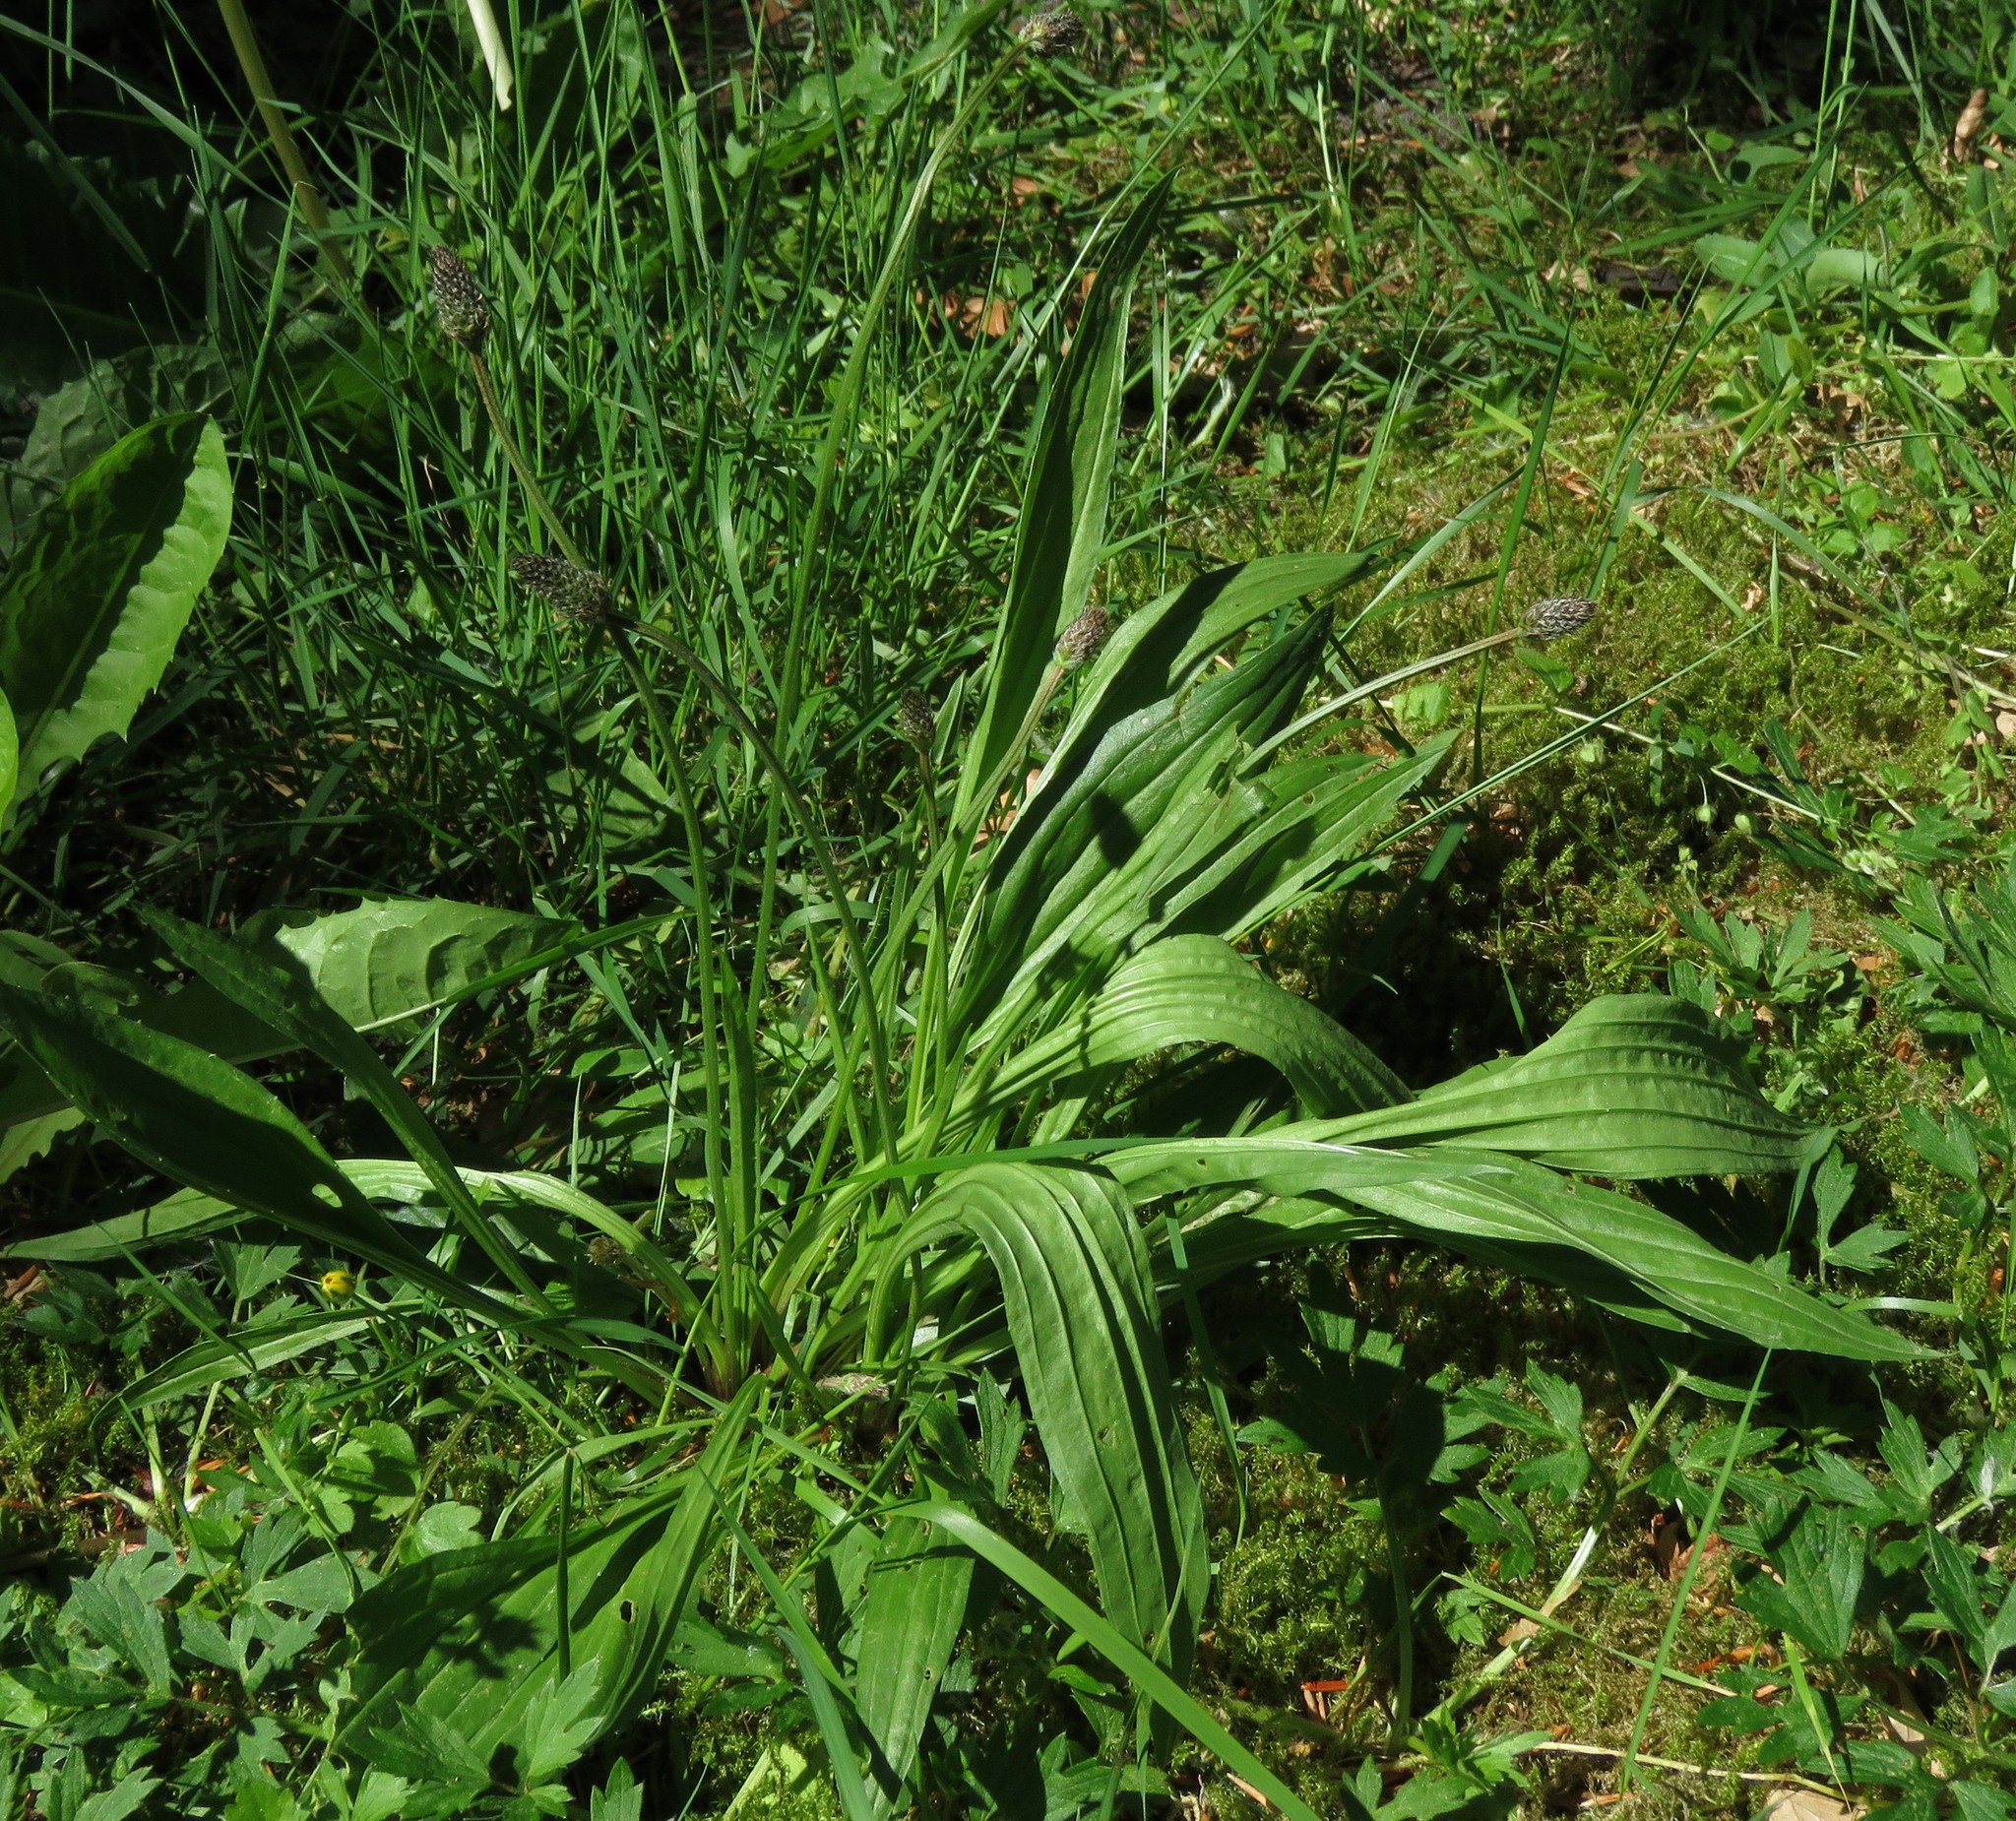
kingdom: Plantae
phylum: Tracheophyta
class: Magnoliopsida
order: Lamiales
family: Plantaginaceae
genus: Plantago
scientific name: Plantago lanceolata
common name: Ribwort plantain
